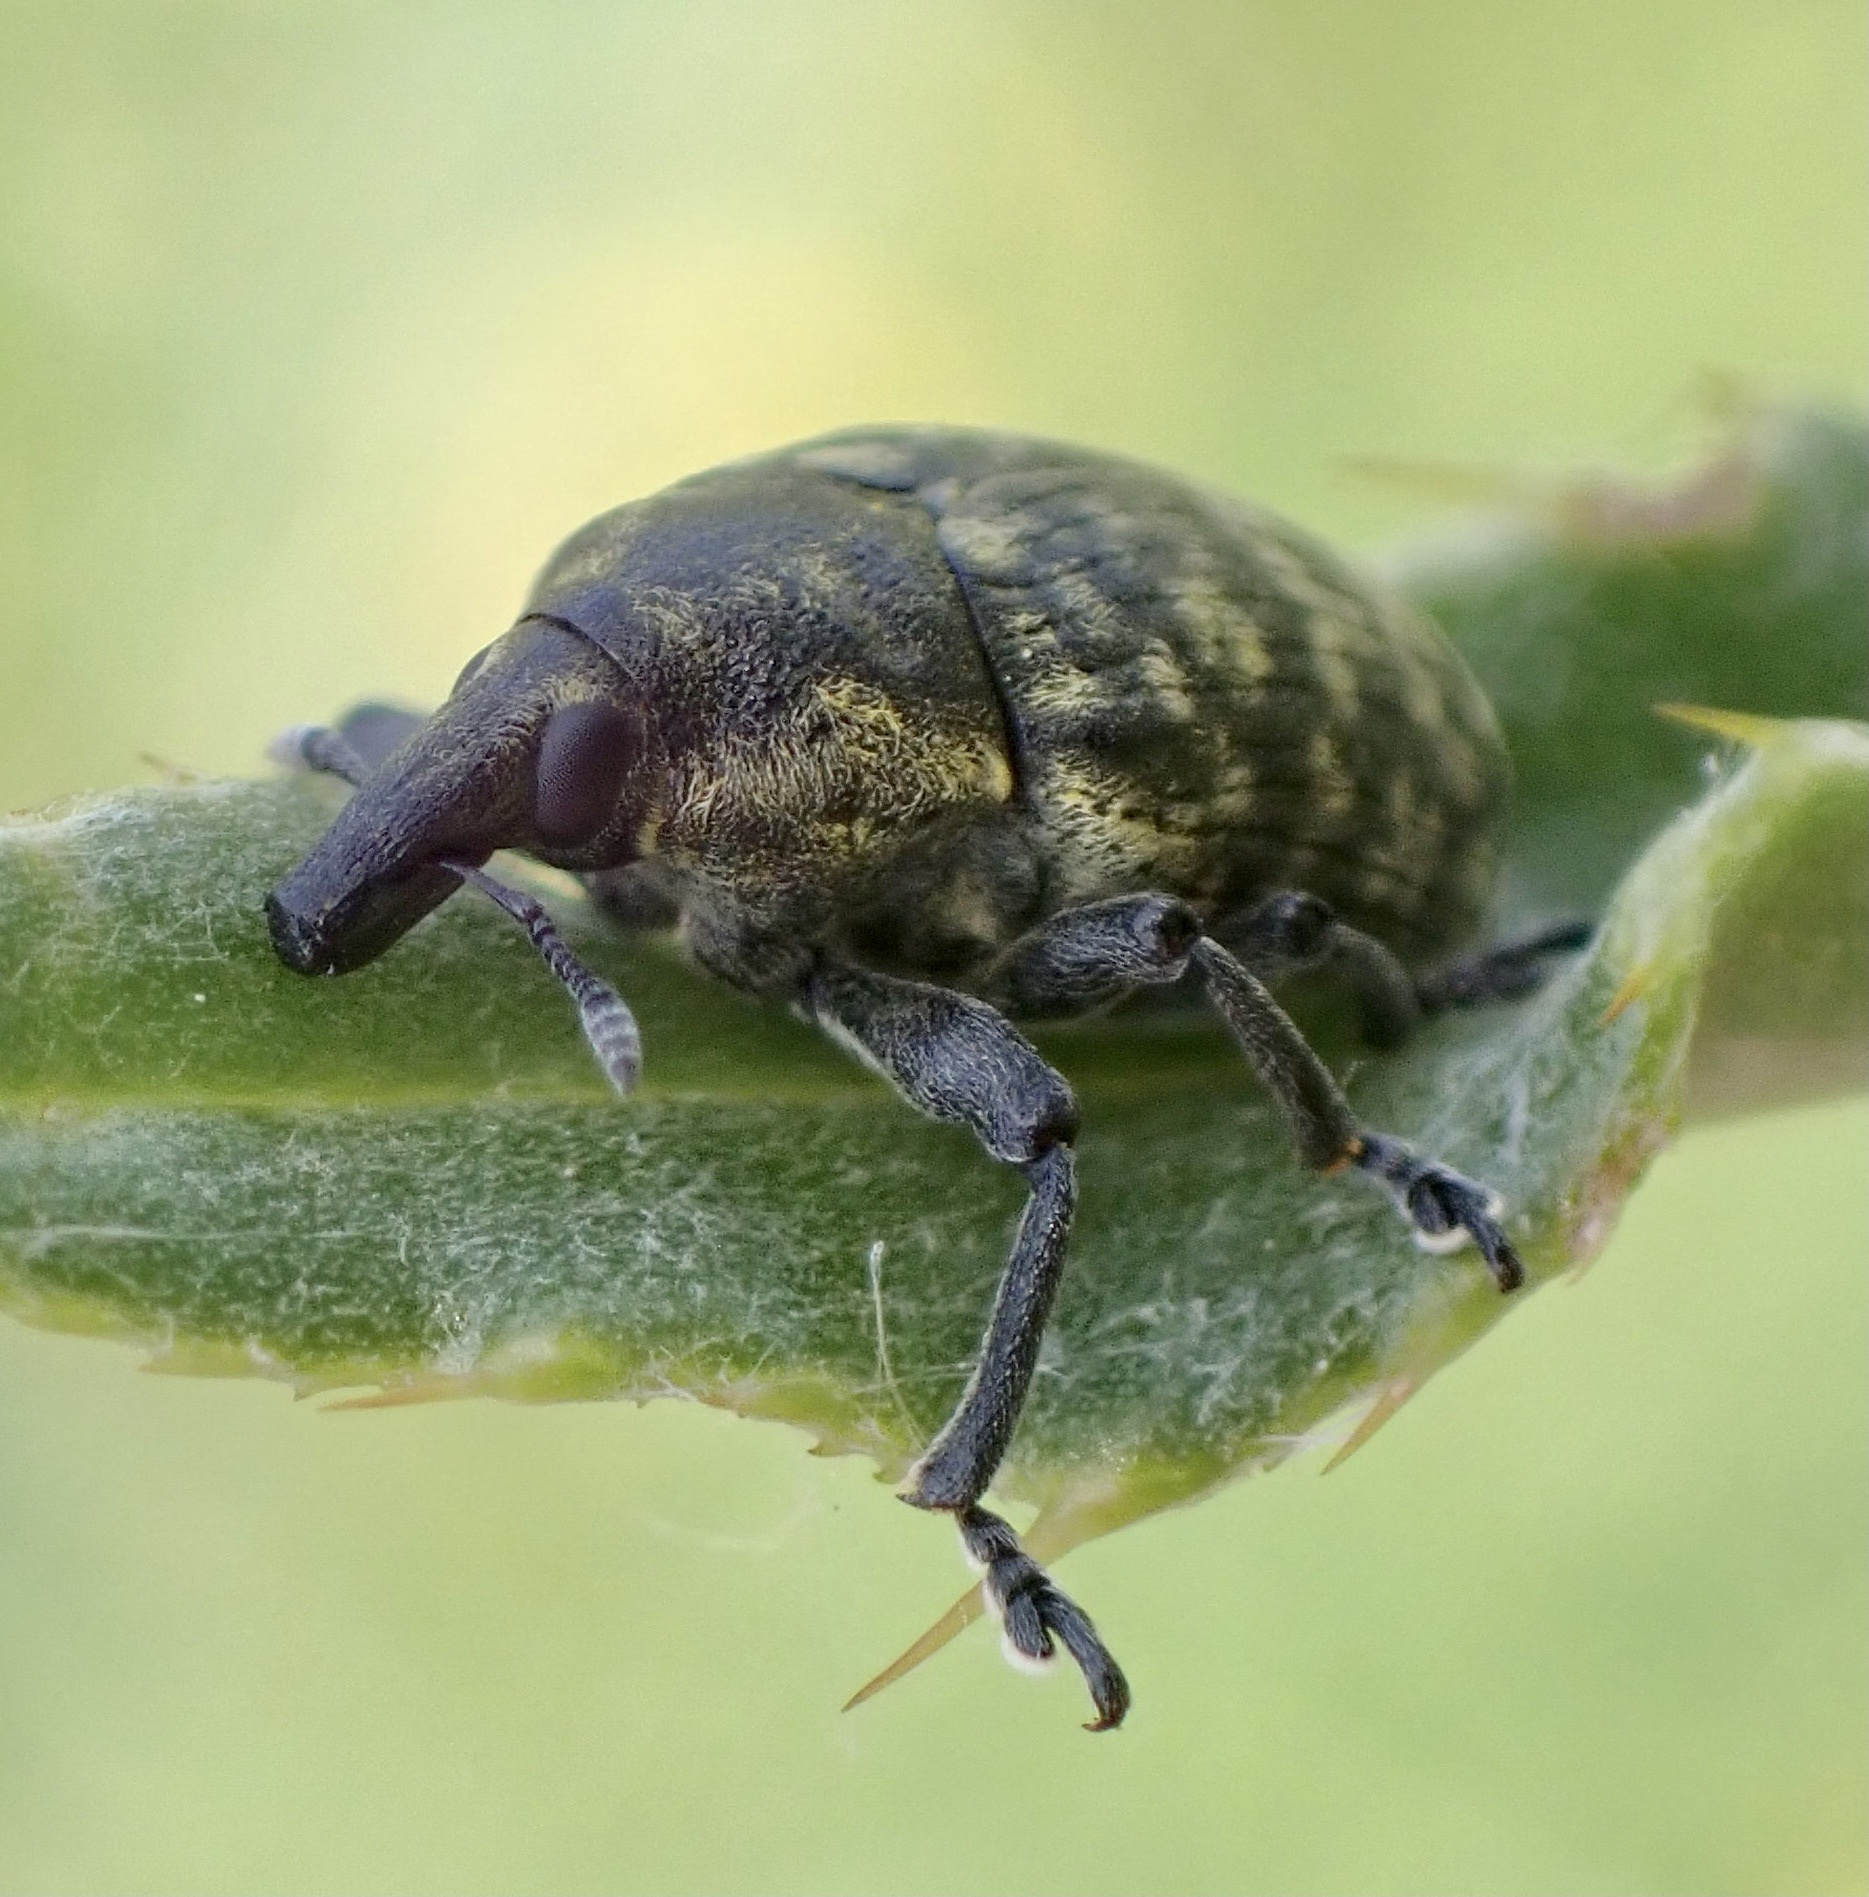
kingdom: Animalia
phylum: Arthropoda
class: Insecta
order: Coleoptera
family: Curculionidae
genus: Larinus
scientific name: Larinus turbinatus
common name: Weevil
